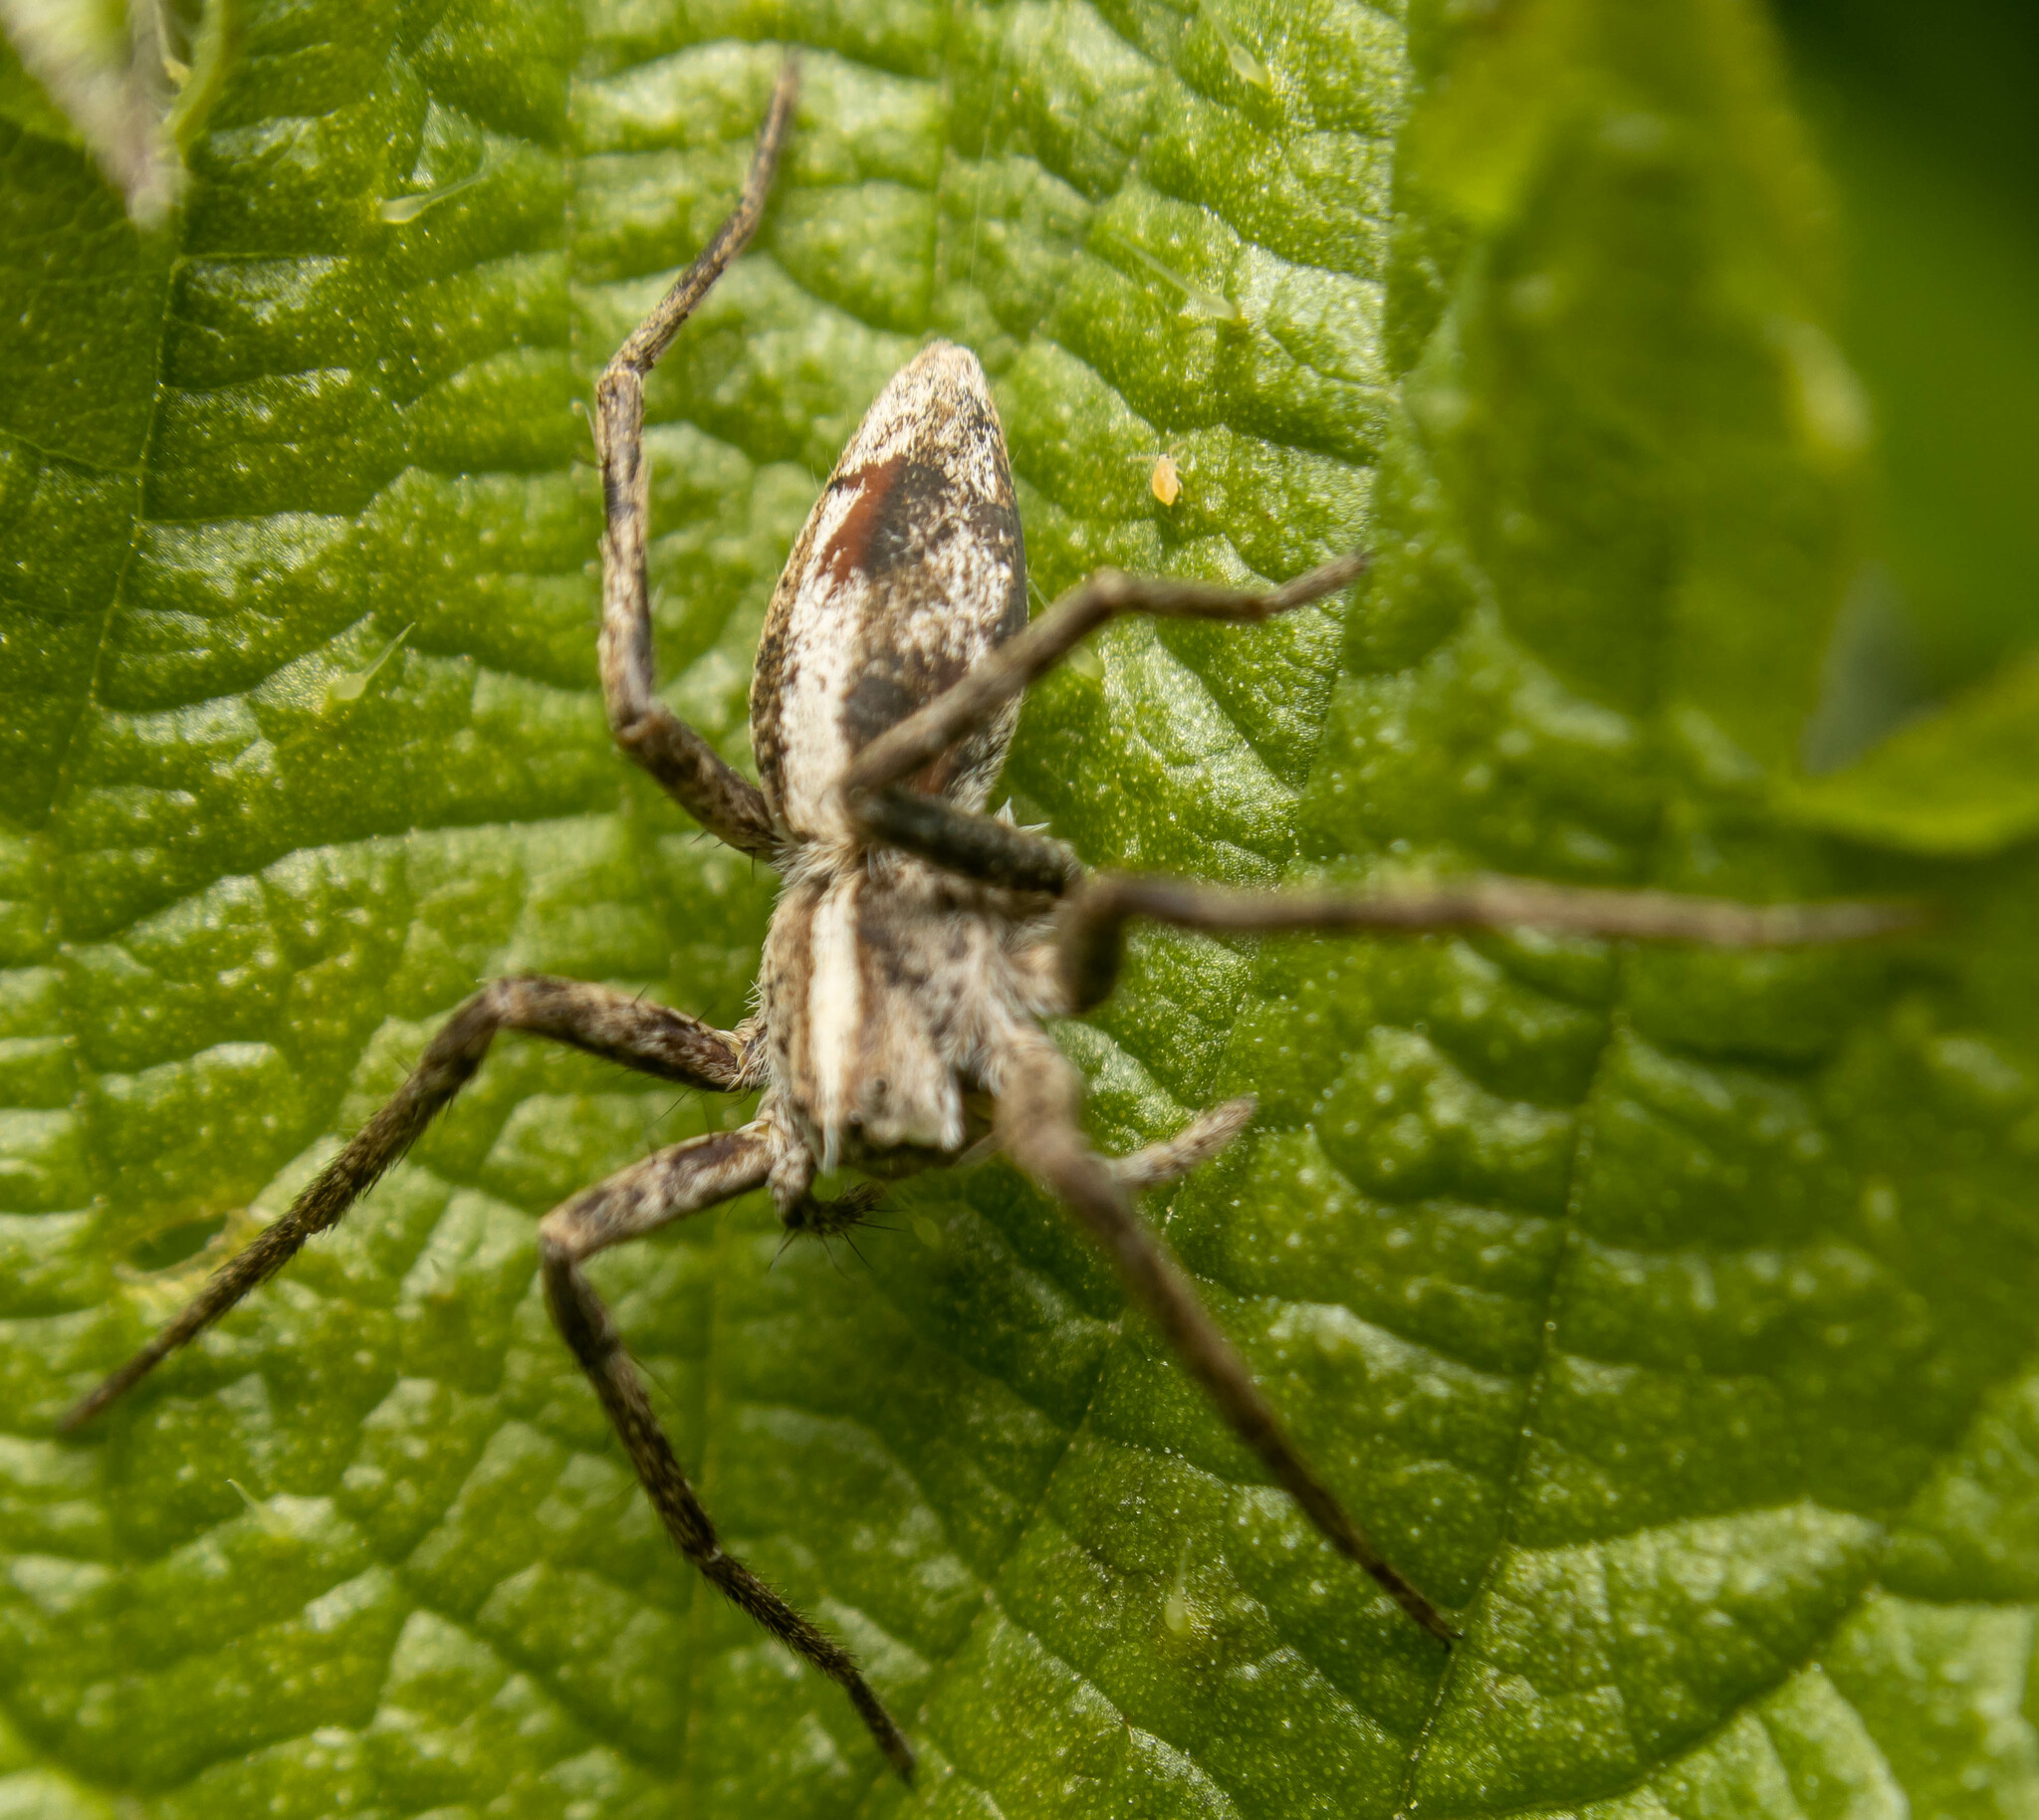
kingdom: Animalia
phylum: Arthropoda
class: Arachnida
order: Araneae
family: Pisauridae
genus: Pisaura
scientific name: Pisaura mirabilis
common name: Tent spider
